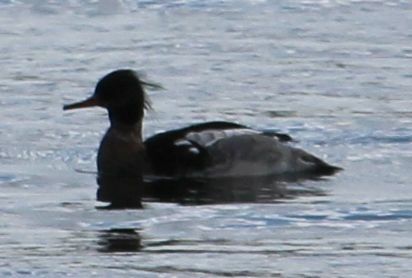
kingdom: Animalia
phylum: Chordata
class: Aves
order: Anseriformes
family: Anatidae
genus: Mergus
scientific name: Mergus serrator
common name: Red-breasted merganser
